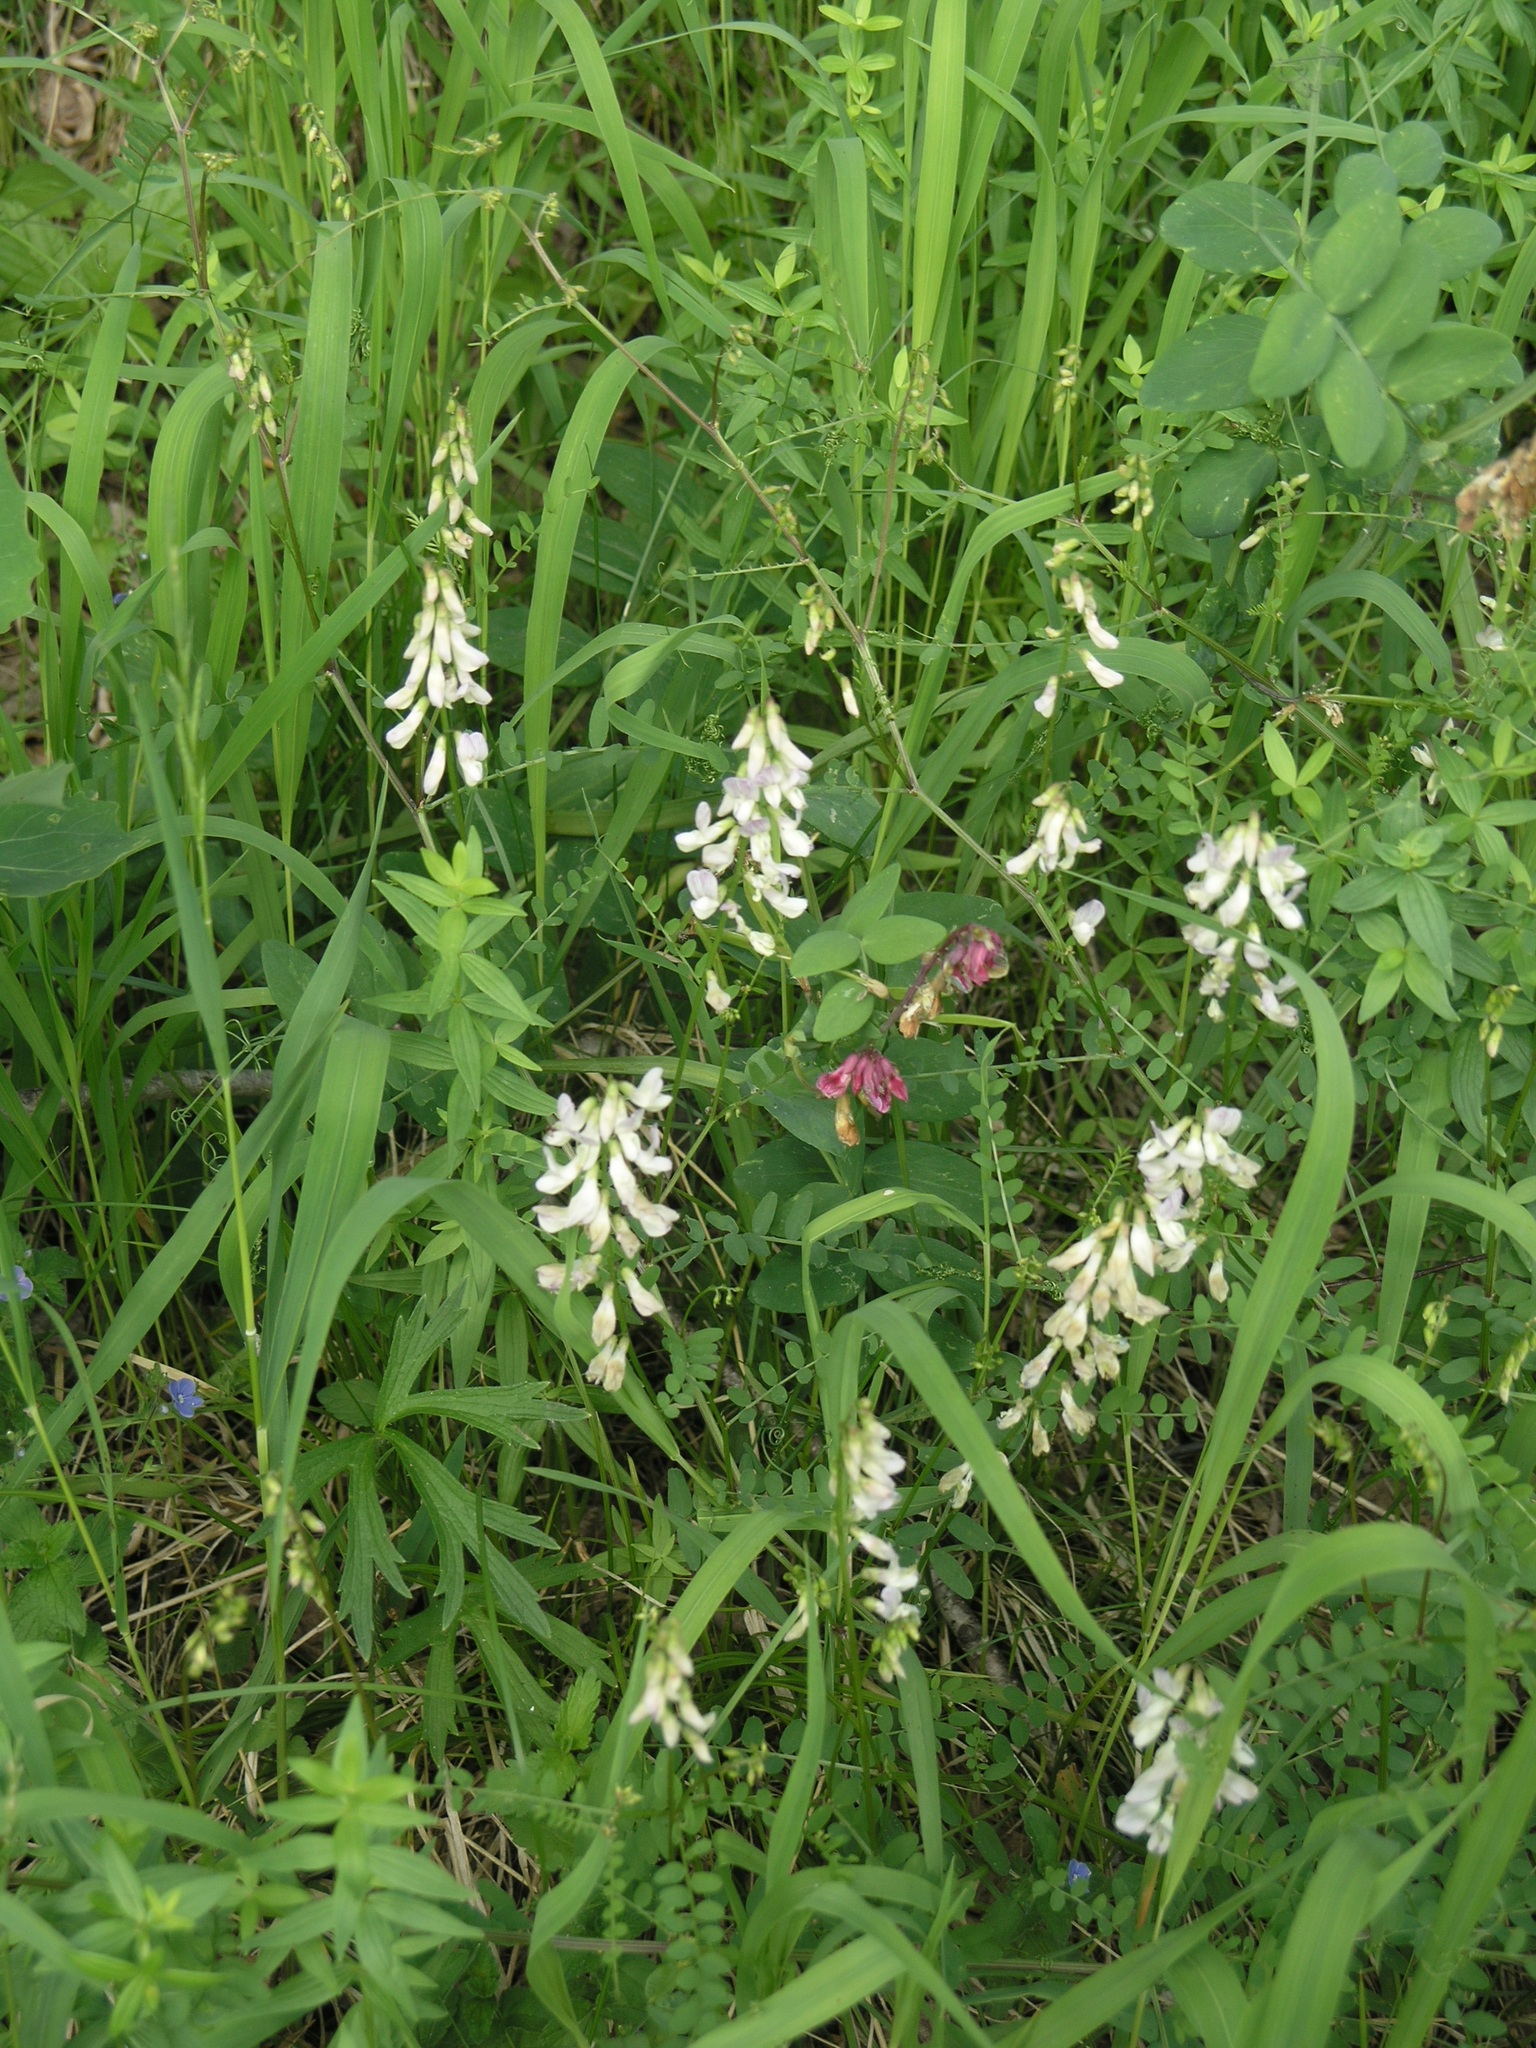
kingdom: Plantae
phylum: Tracheophyta
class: Magnoliopsida
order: Fabales
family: Fabaceae
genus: Vicia
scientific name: Vicia sylvatica
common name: Wood vetch
